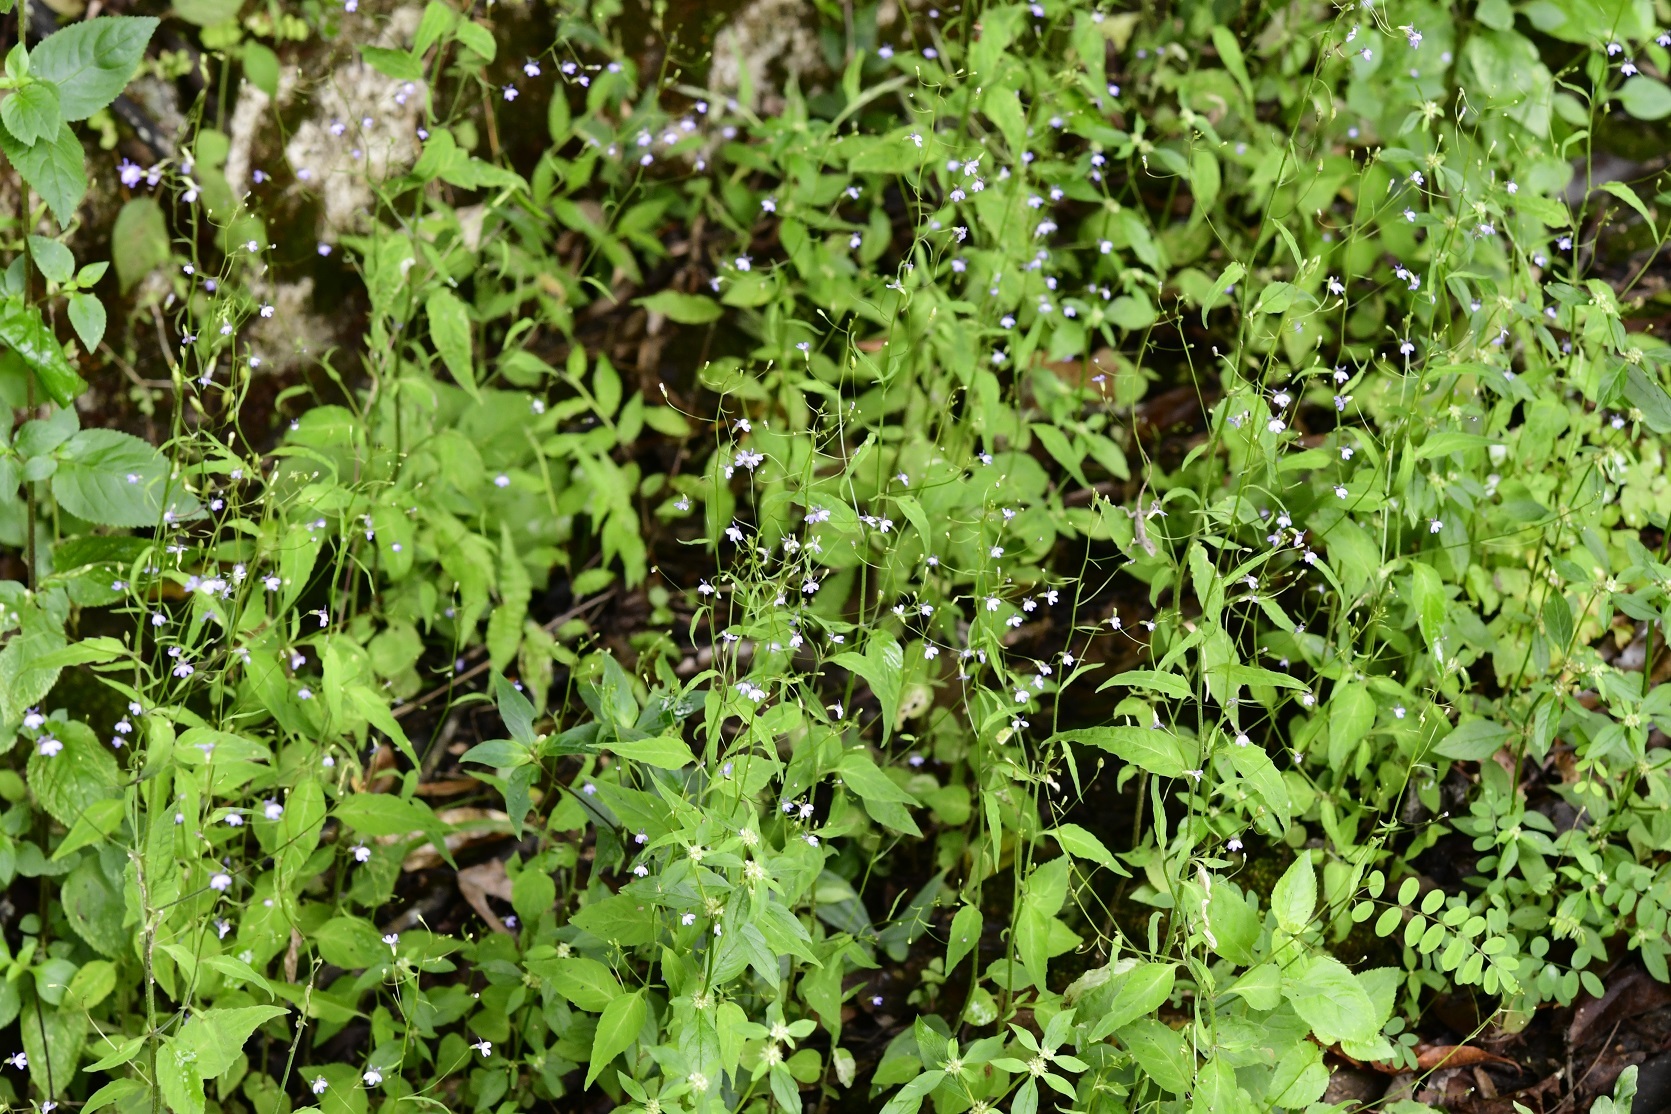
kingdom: Plantae
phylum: Tracheophyta
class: Magnoliopsida
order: Asterales
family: Campanulaceae
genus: Lobelia
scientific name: Lobelia caeciliae
